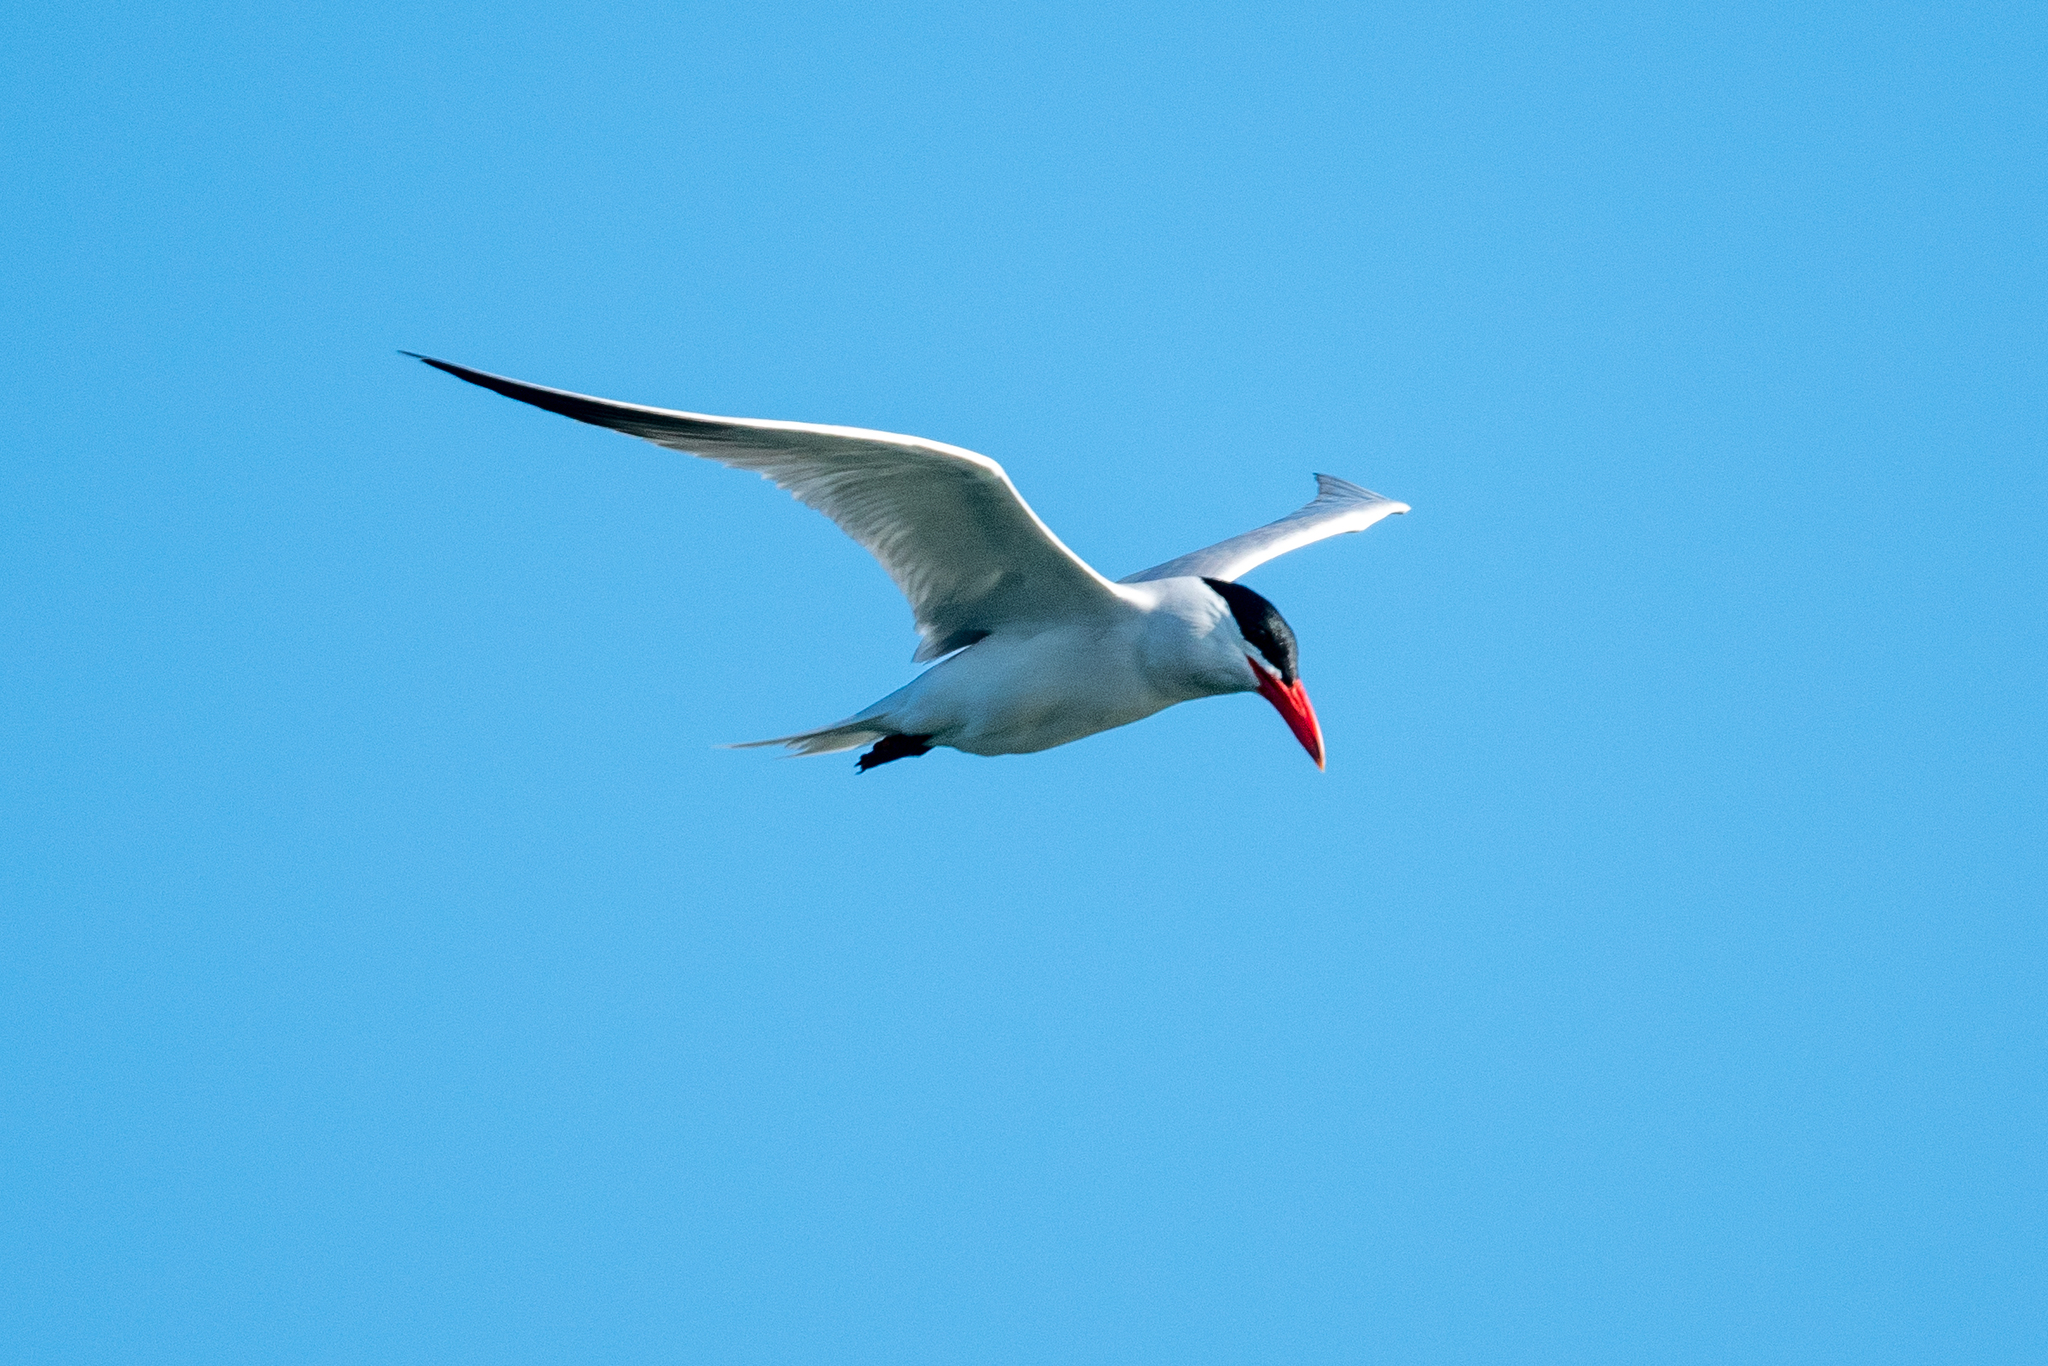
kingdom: Animalia
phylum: Chordata
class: Aves
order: Charadriiformes
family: Laridae
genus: Hydroprogne
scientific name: Hydroprogne caspia
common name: Caspian tern
